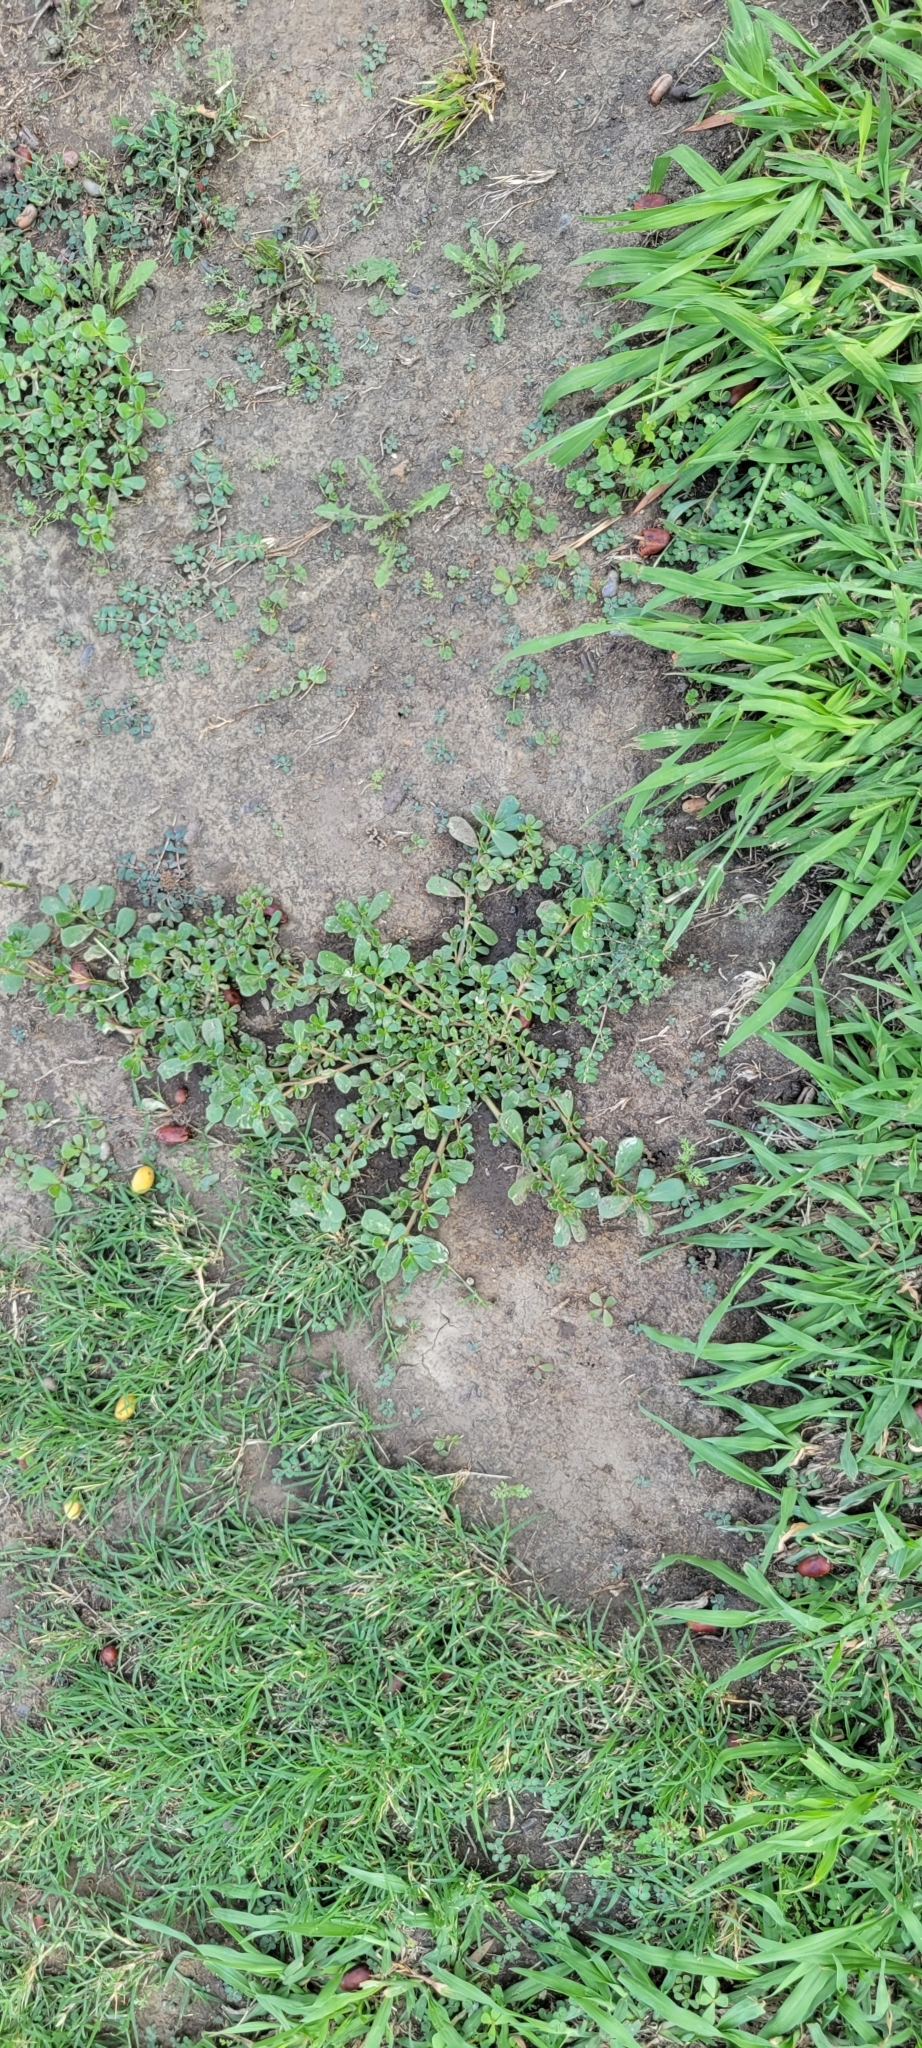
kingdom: Plantae
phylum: Tracheophyta
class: Magnoliopsida
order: Caryophyllales
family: Portulacaceae
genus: Portulaca
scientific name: Portulaca oleracea
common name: Common purslane
